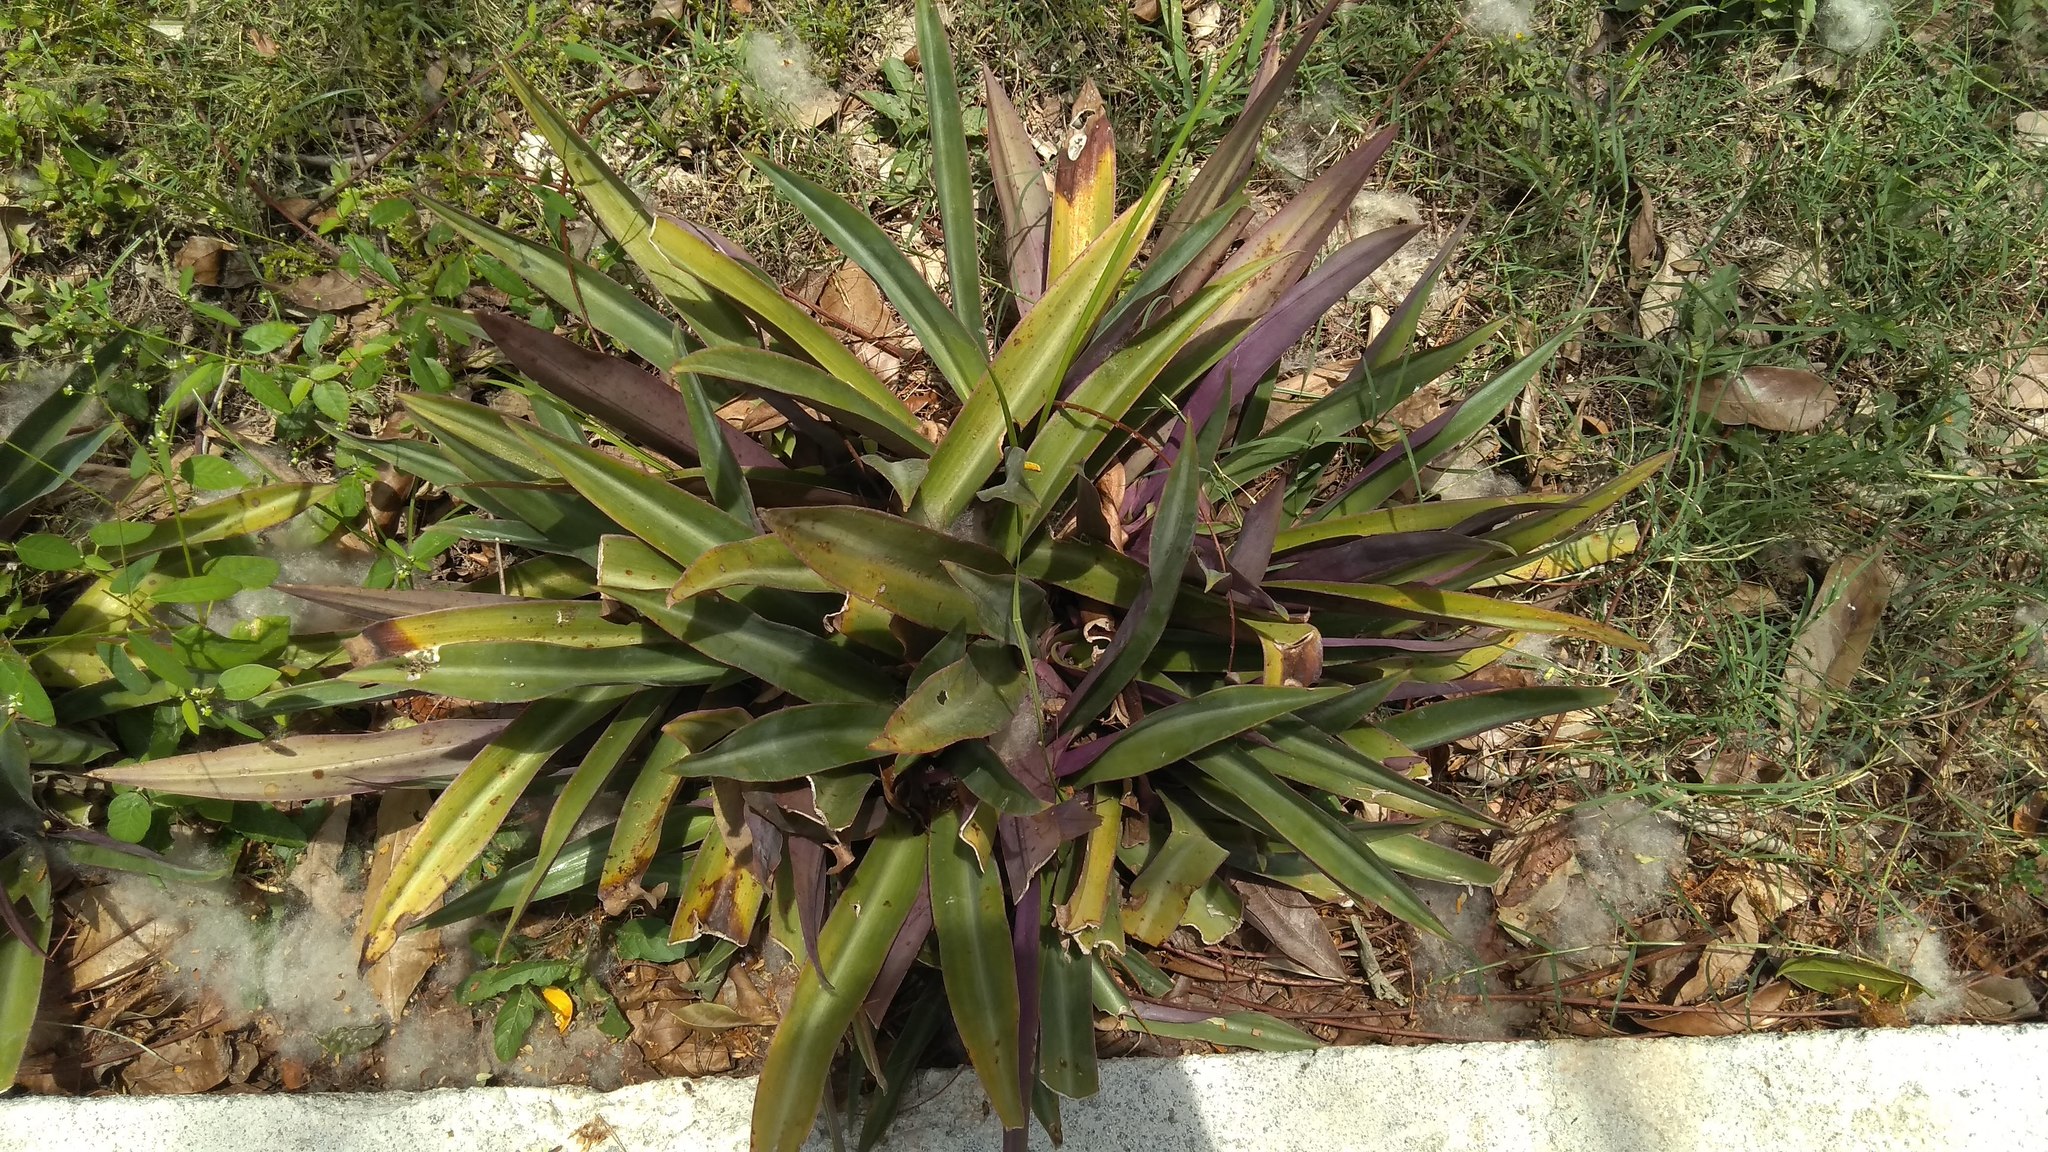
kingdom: Plantae
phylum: Tracheophyta
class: Liliopsida
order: Commelinales
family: Commelinaceae
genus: Tradescantia
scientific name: Tradescantia spathacea
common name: Boatlily
